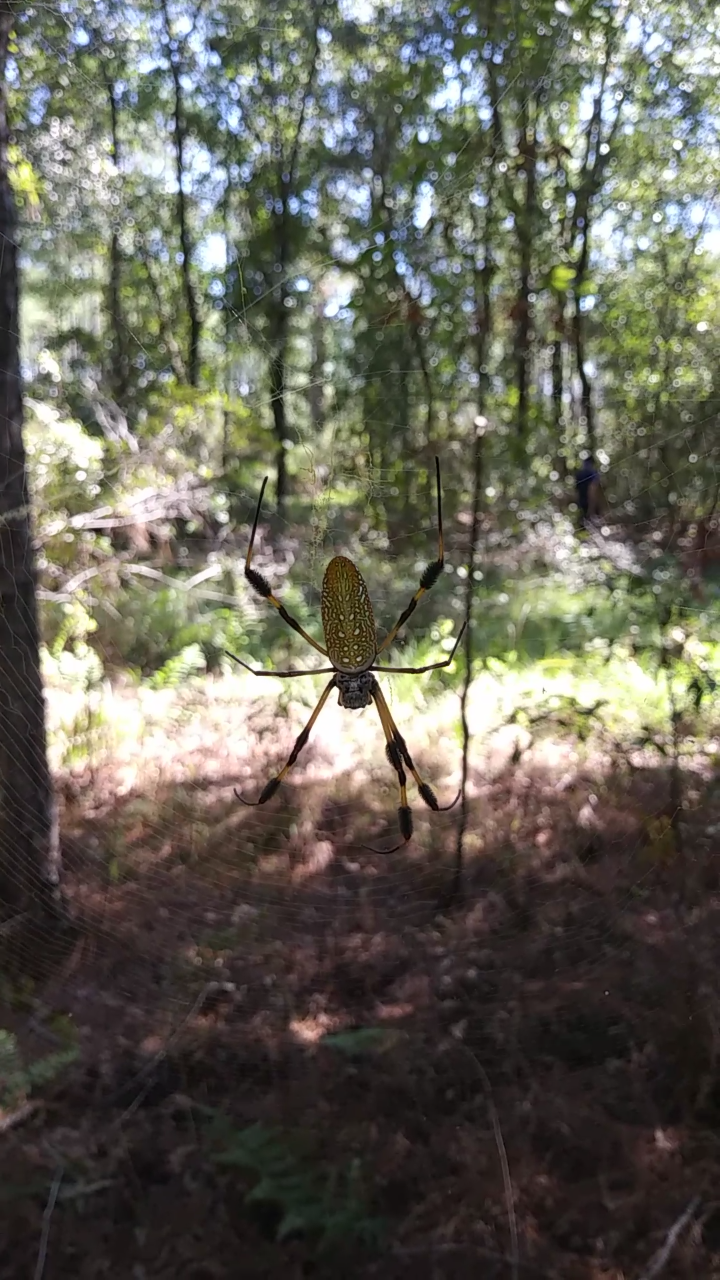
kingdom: Animalia
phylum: Arthropoda
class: Arachnida
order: Araneae
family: Araneidae
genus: Trichonephila
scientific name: Trichonephila clavipes
